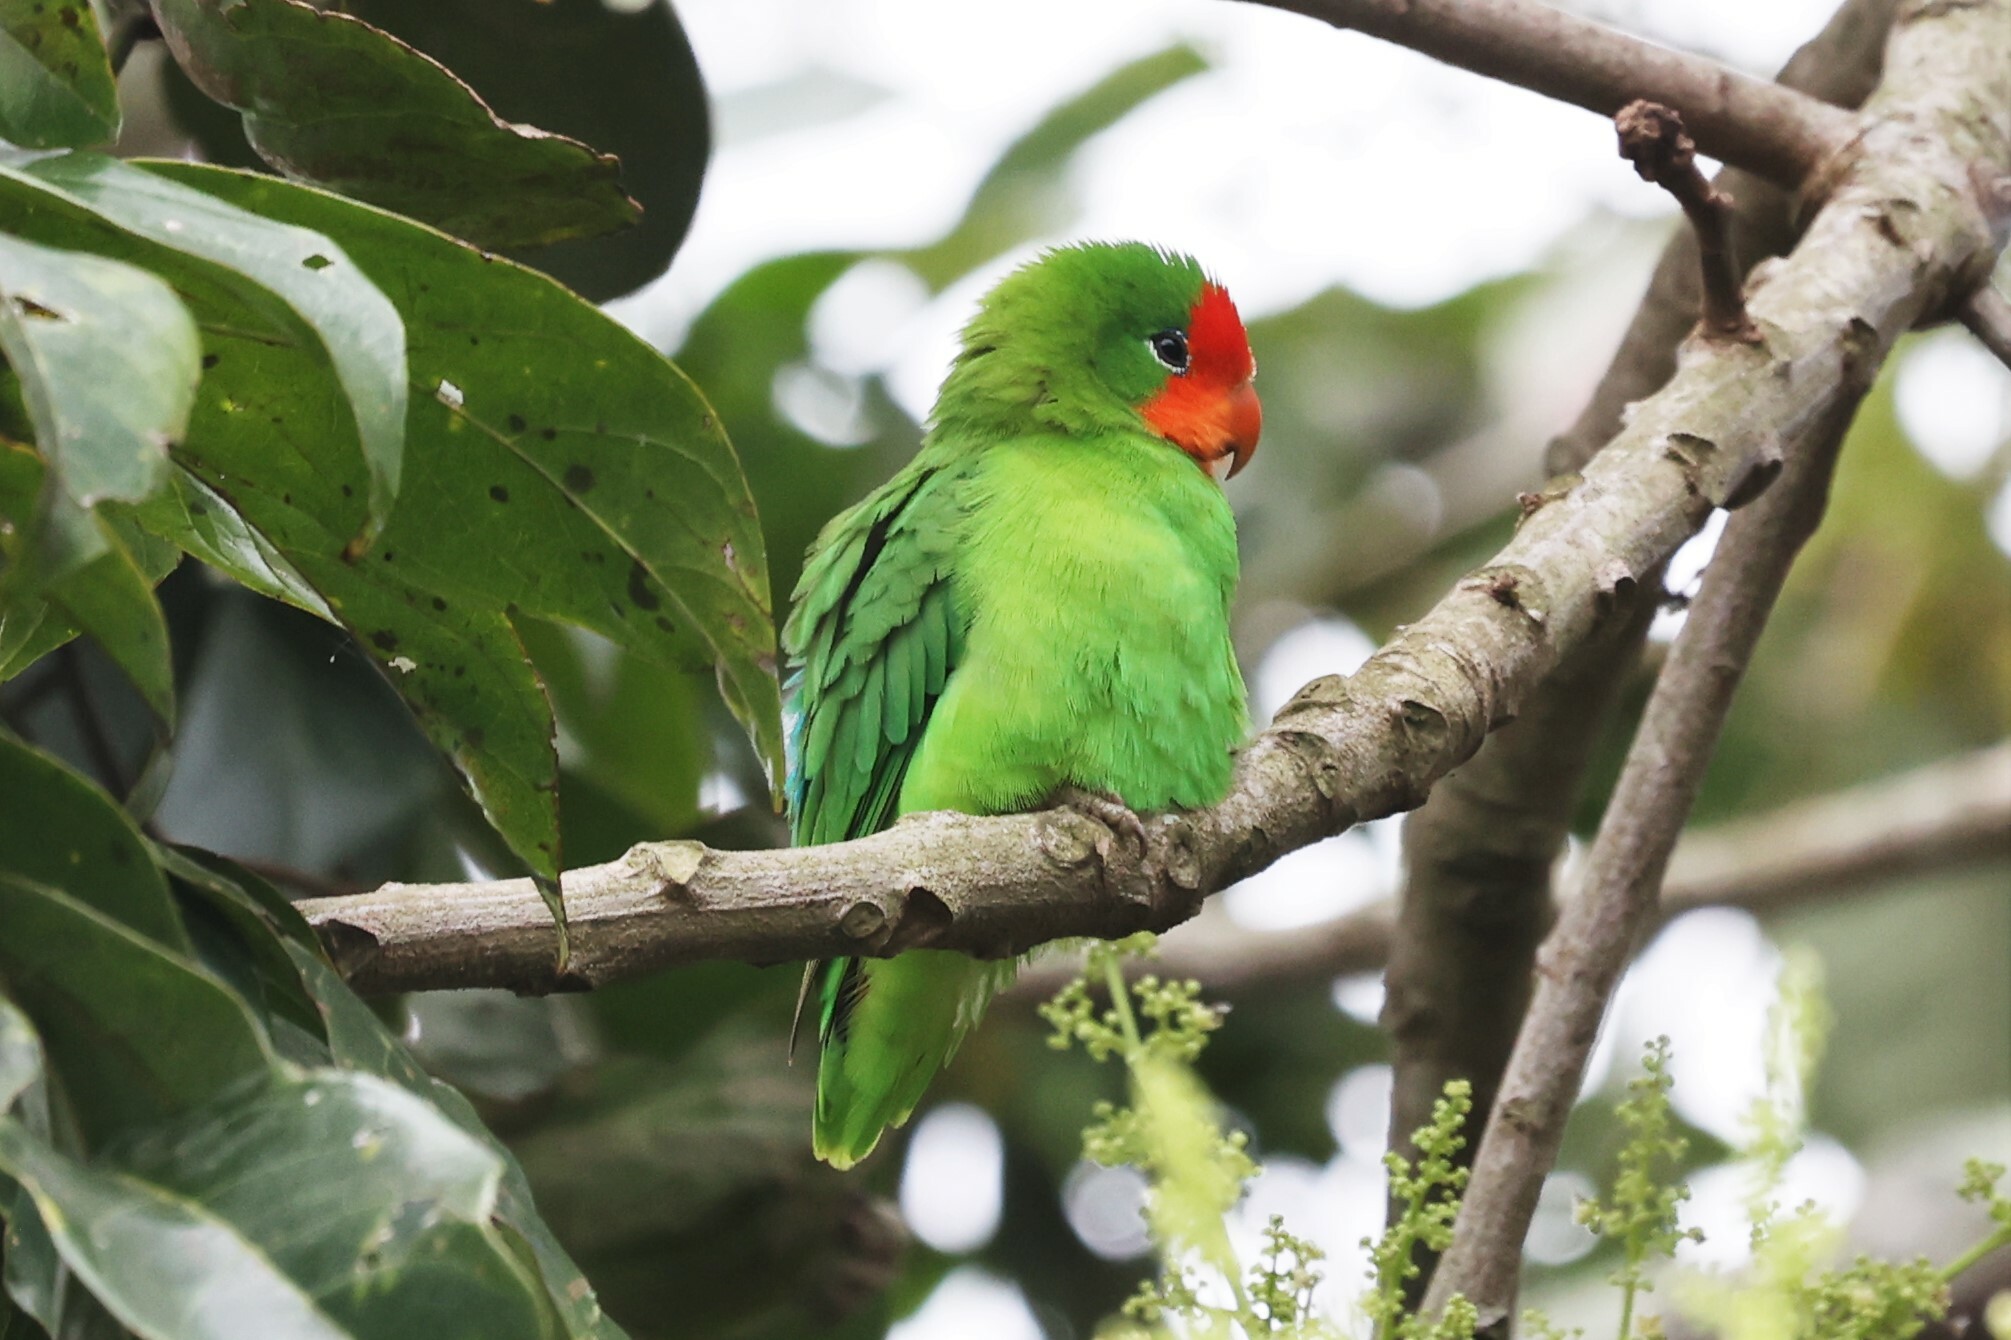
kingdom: Animalia
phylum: Chordata
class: Aves
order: Psittaciformes
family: Psittacidae
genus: Agapornis
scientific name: Agapornis pullarius
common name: Red-headed lovebird
